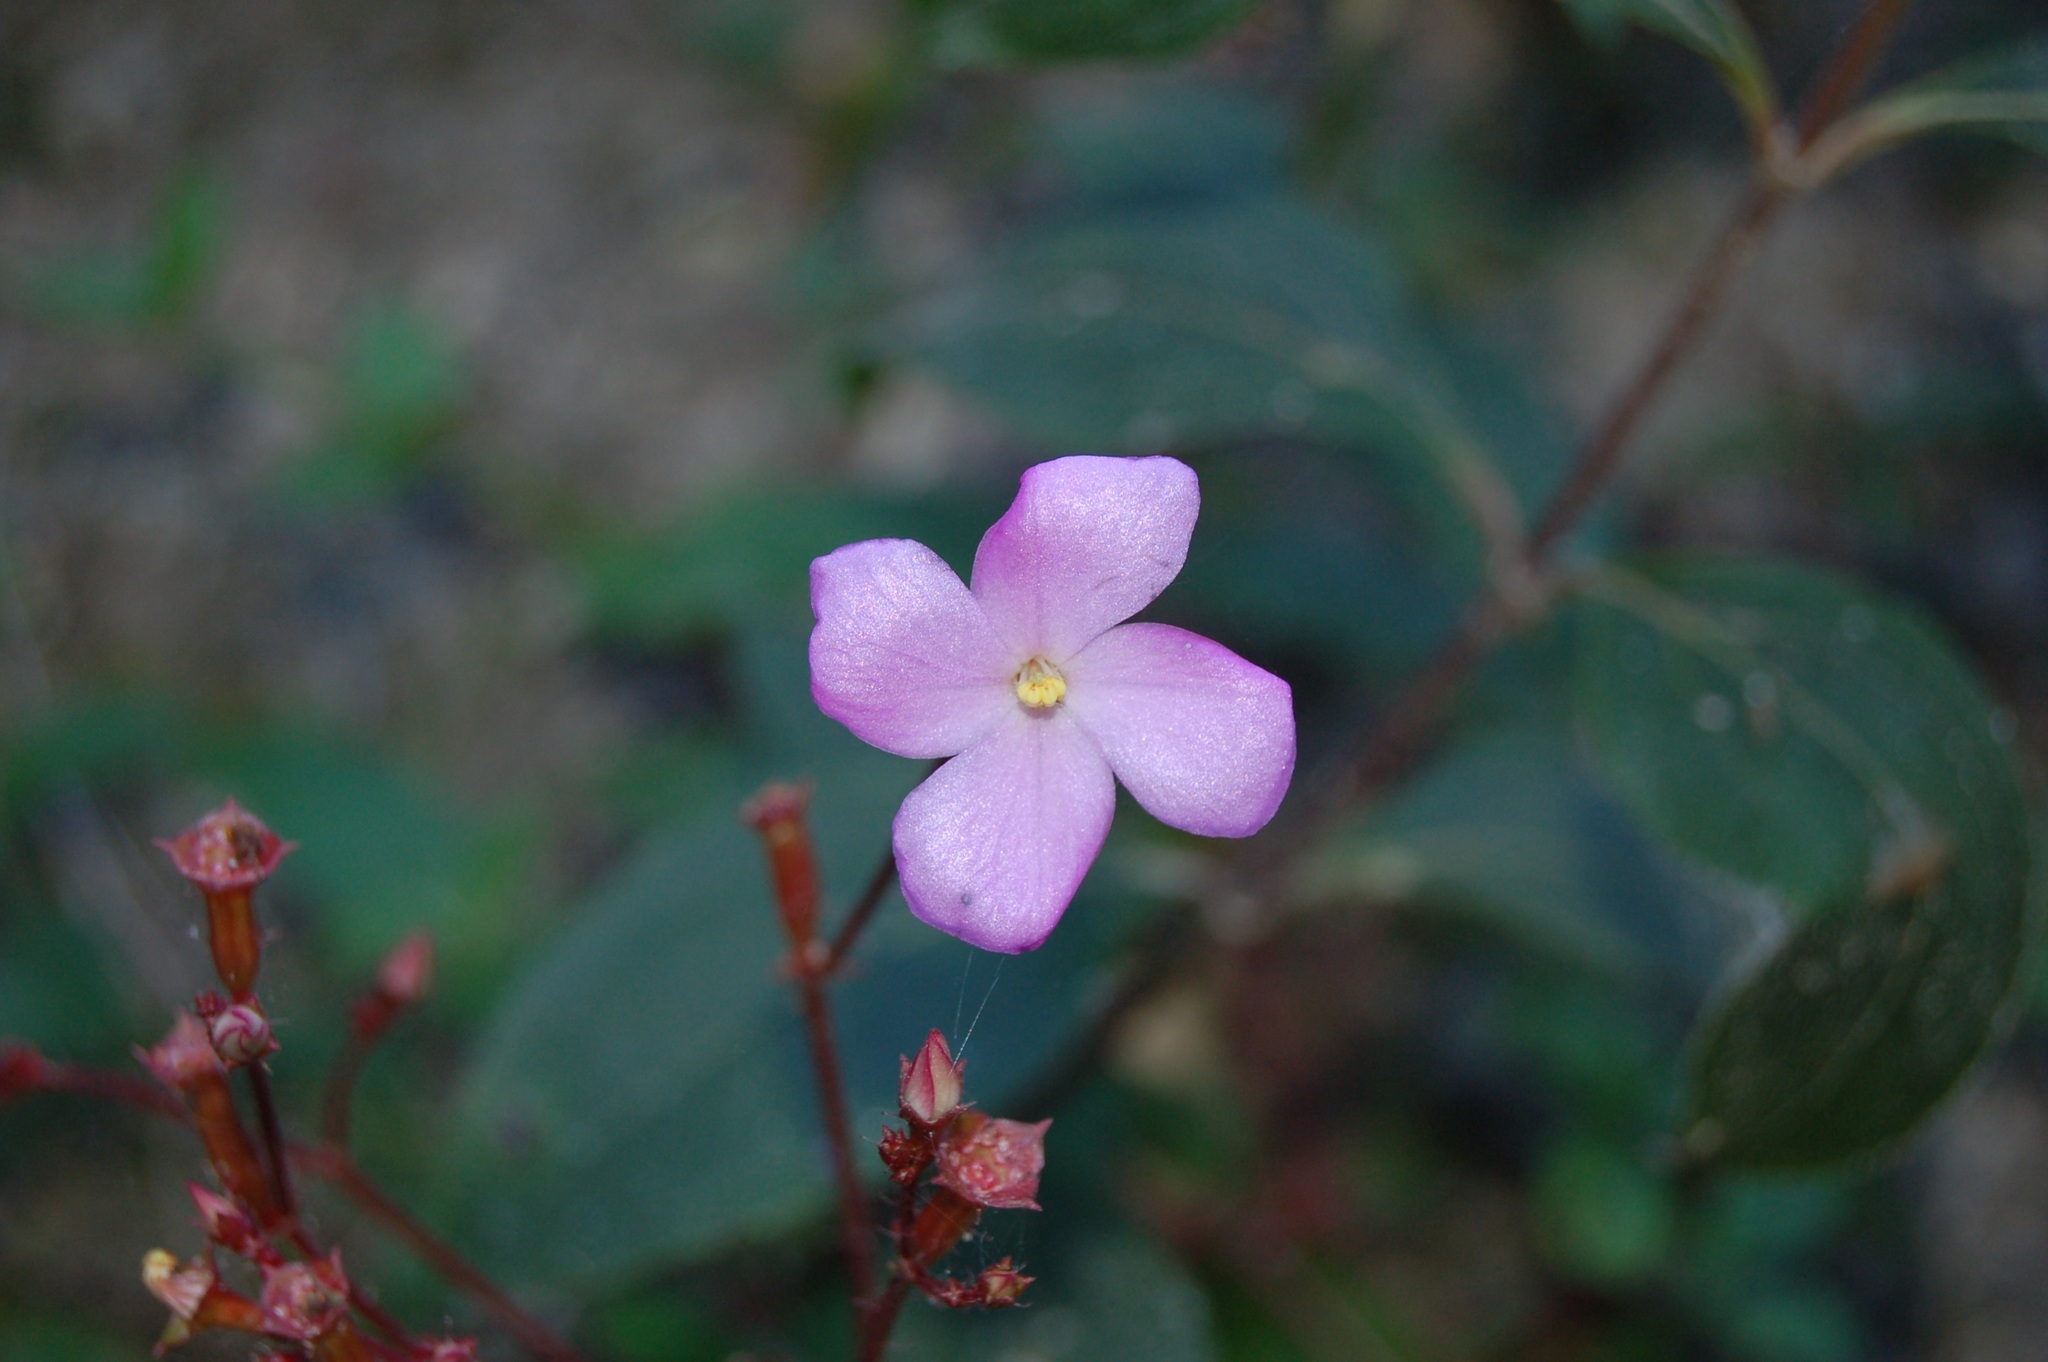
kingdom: Plantae
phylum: Tracheophyta
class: Magnoliopsida
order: Myrtales
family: Melastomataceae
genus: Arthrostemma
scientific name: Arthrostemma parvifolium
